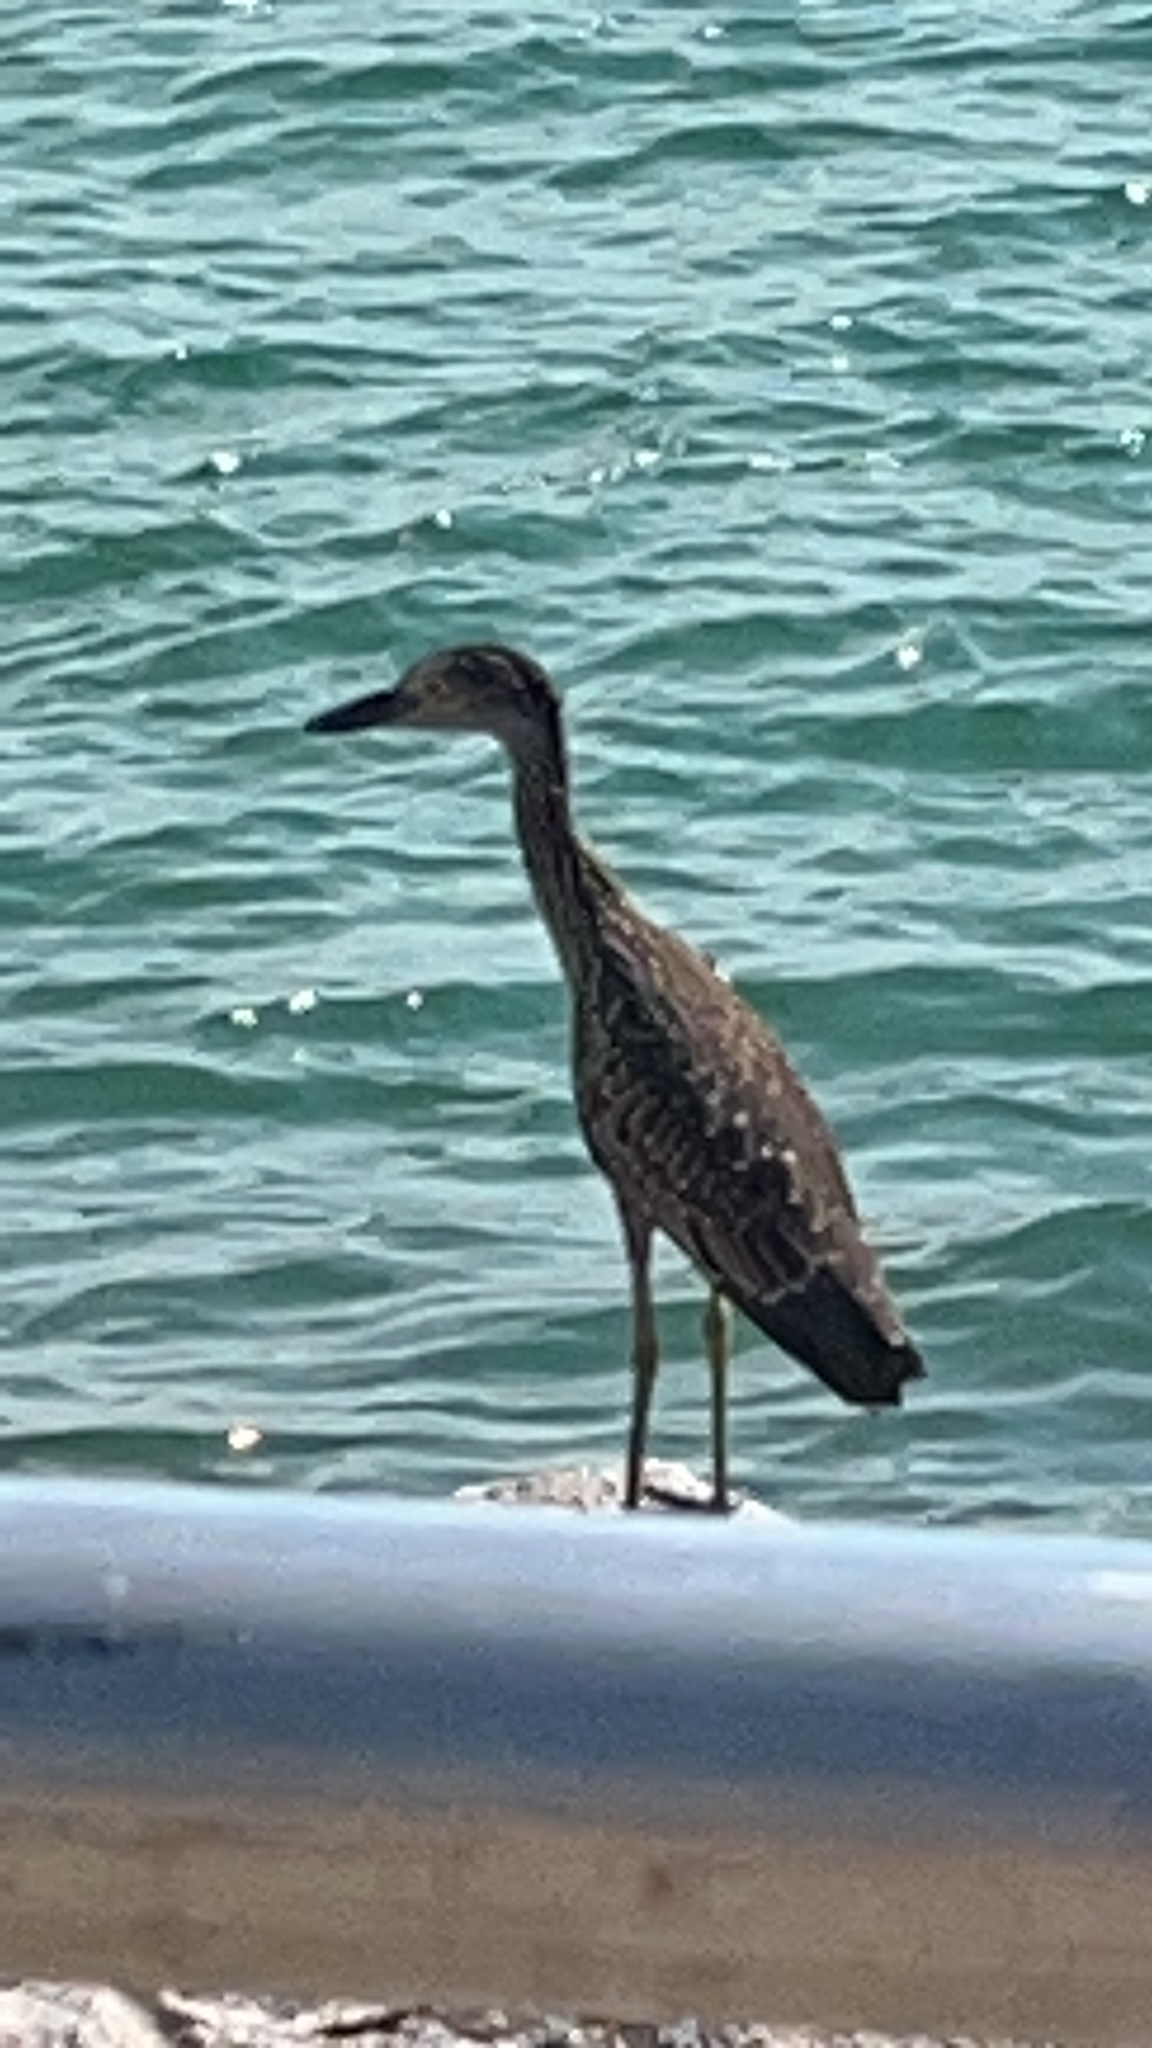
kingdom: Animalia
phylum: Chordata
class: Aves
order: Pelecaniformes
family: Ardeidae
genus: Nyctanassa
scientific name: Nyctanassa violacea
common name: Yellow-crowned night heron
